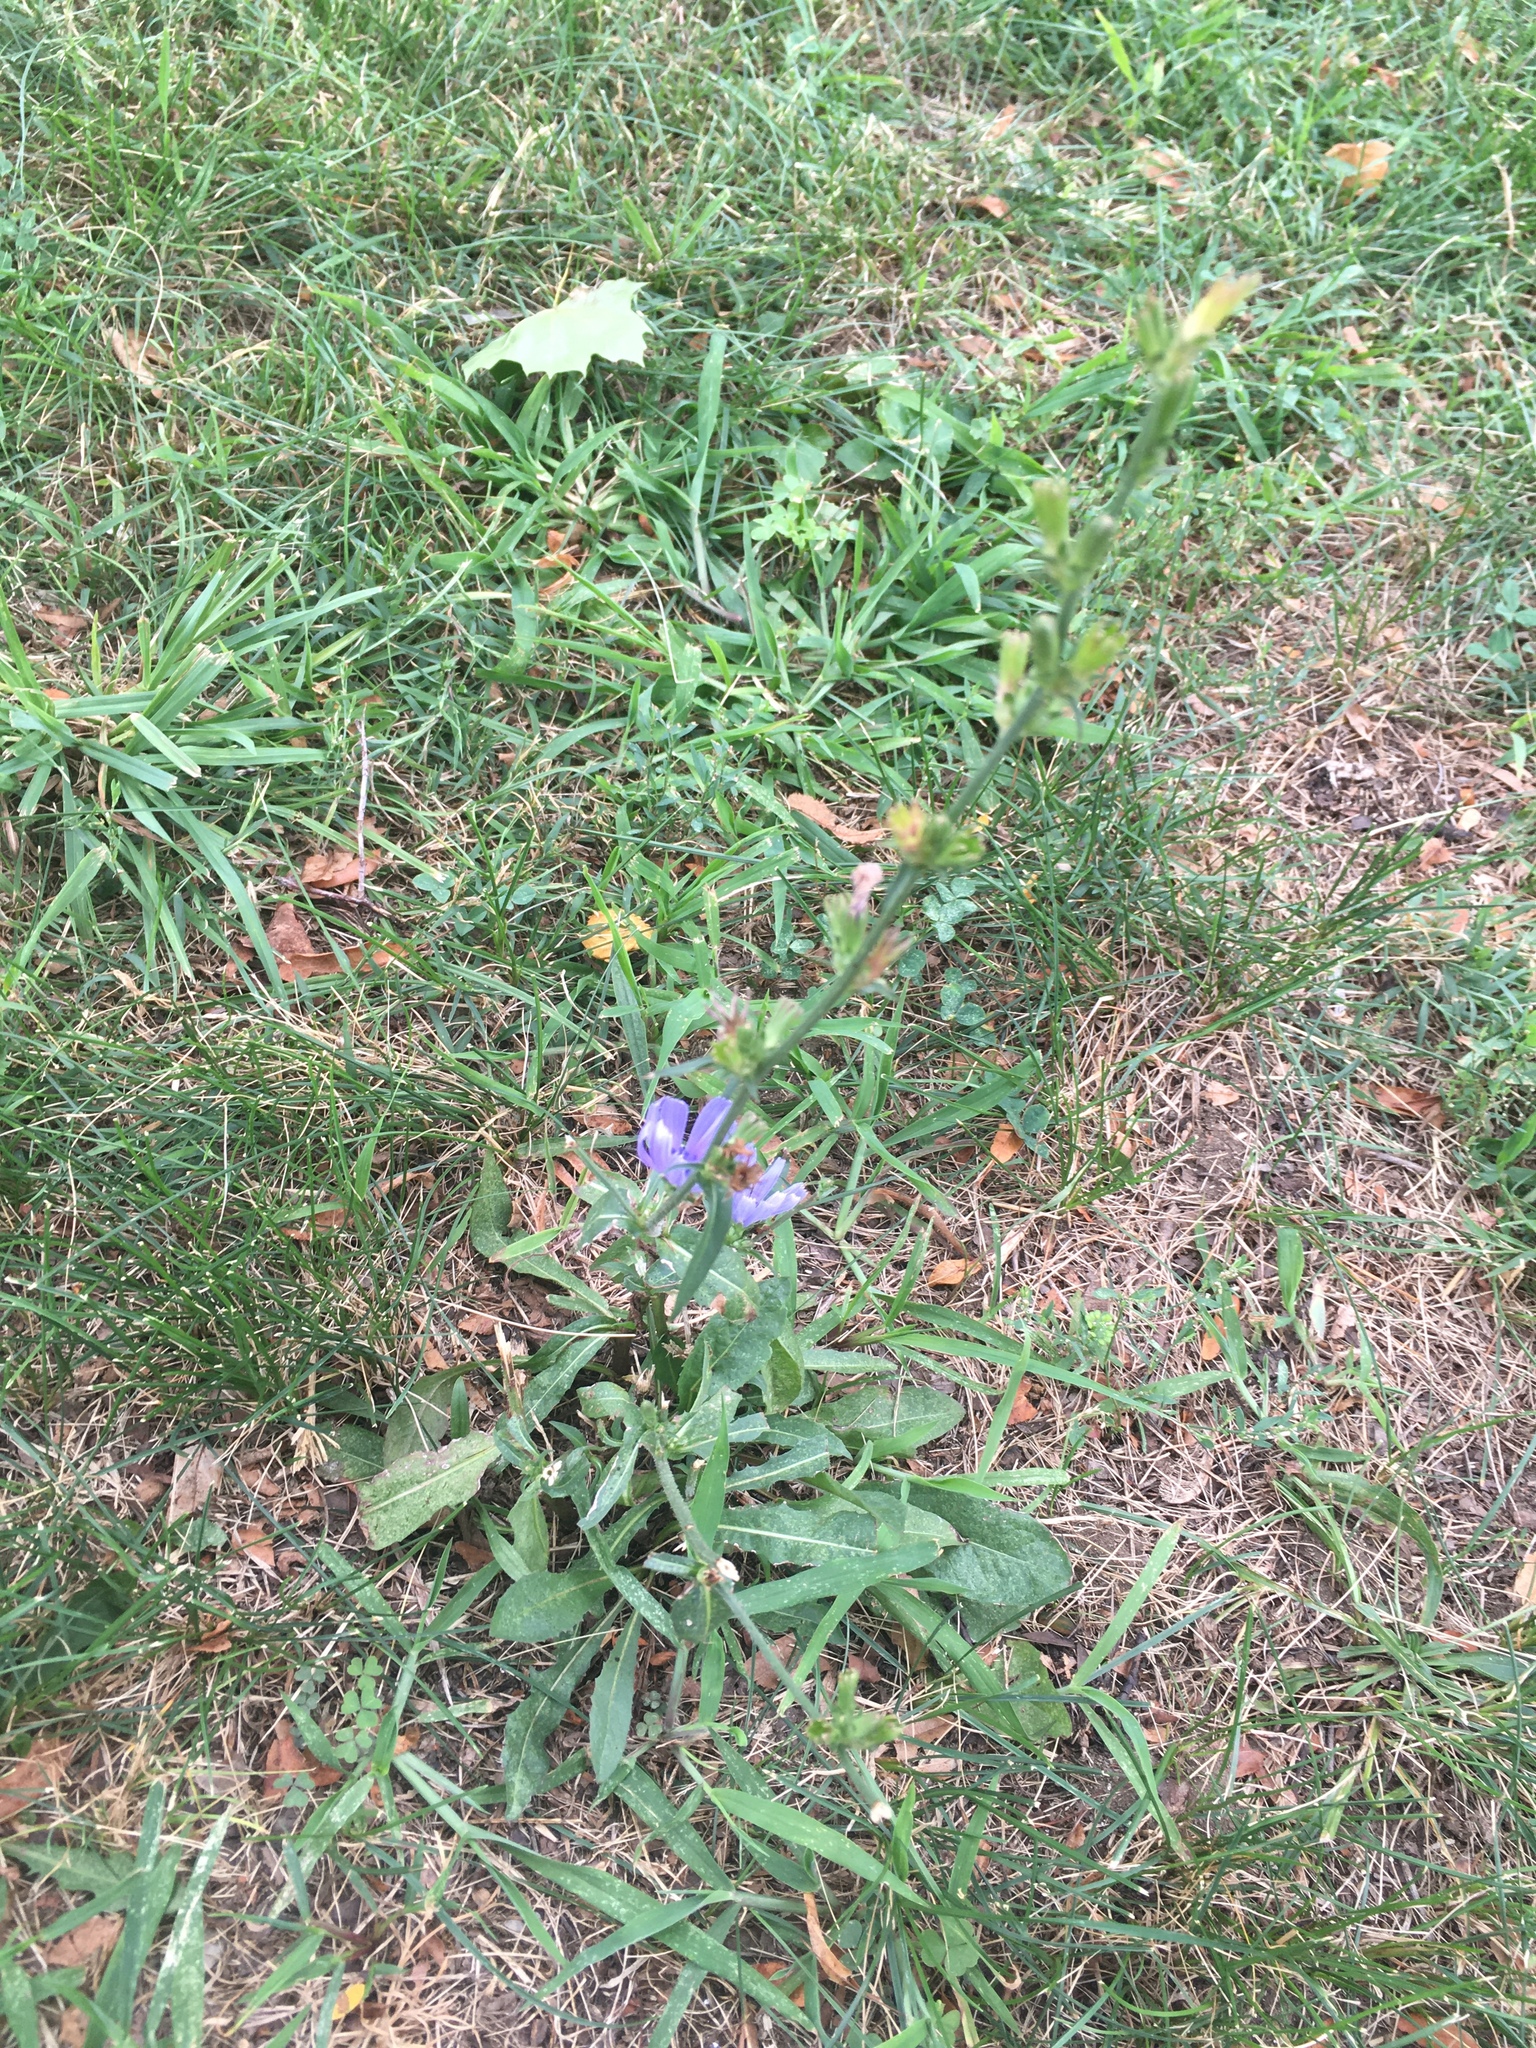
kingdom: Plantae
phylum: Tracheophyta
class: Magnoliopsida
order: Asterales
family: Asteraceae
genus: Cichorium
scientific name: Cichorium intybus
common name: Chicory
